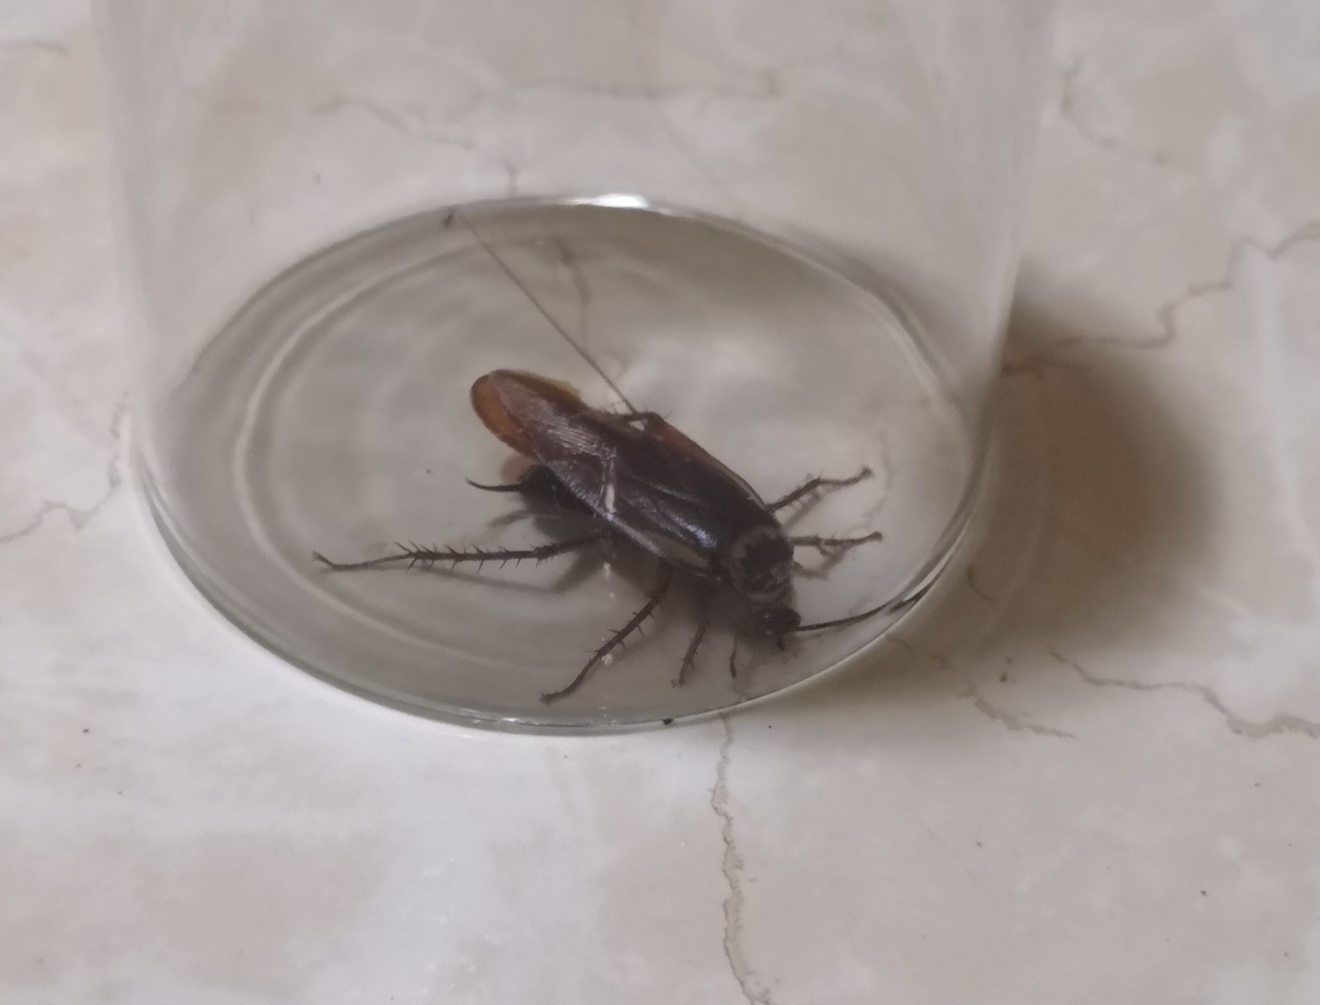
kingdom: Animalia
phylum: Arthropoda
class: Insecta
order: Blattodea
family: Blattidae
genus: Periplaneta
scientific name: Periplaneta americana
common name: American cockroach
